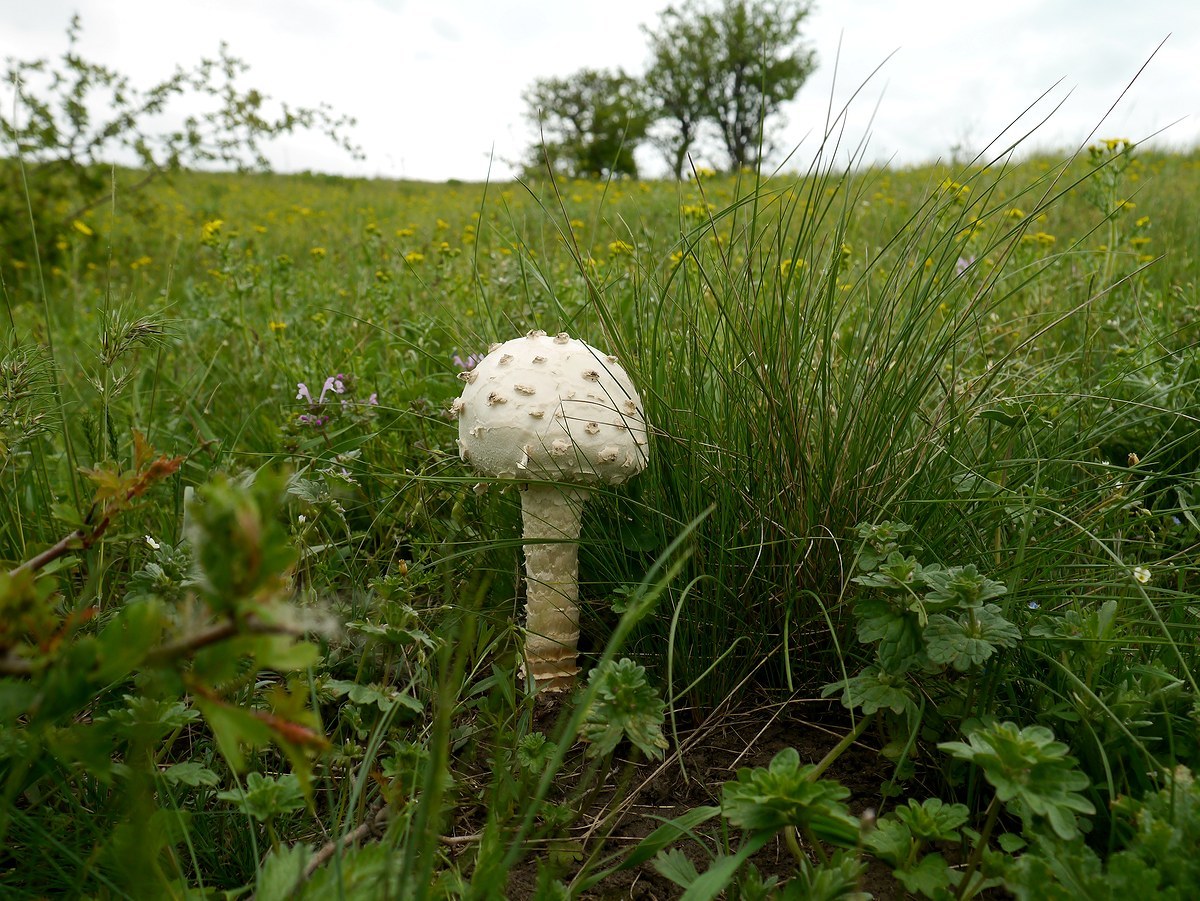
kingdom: Fungi
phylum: Basidiomycota
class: Agaricomycetes
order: Agaricales
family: Amanitaceae
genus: Amanita
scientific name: Amanita vittadinii
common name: Barefoot amanita
